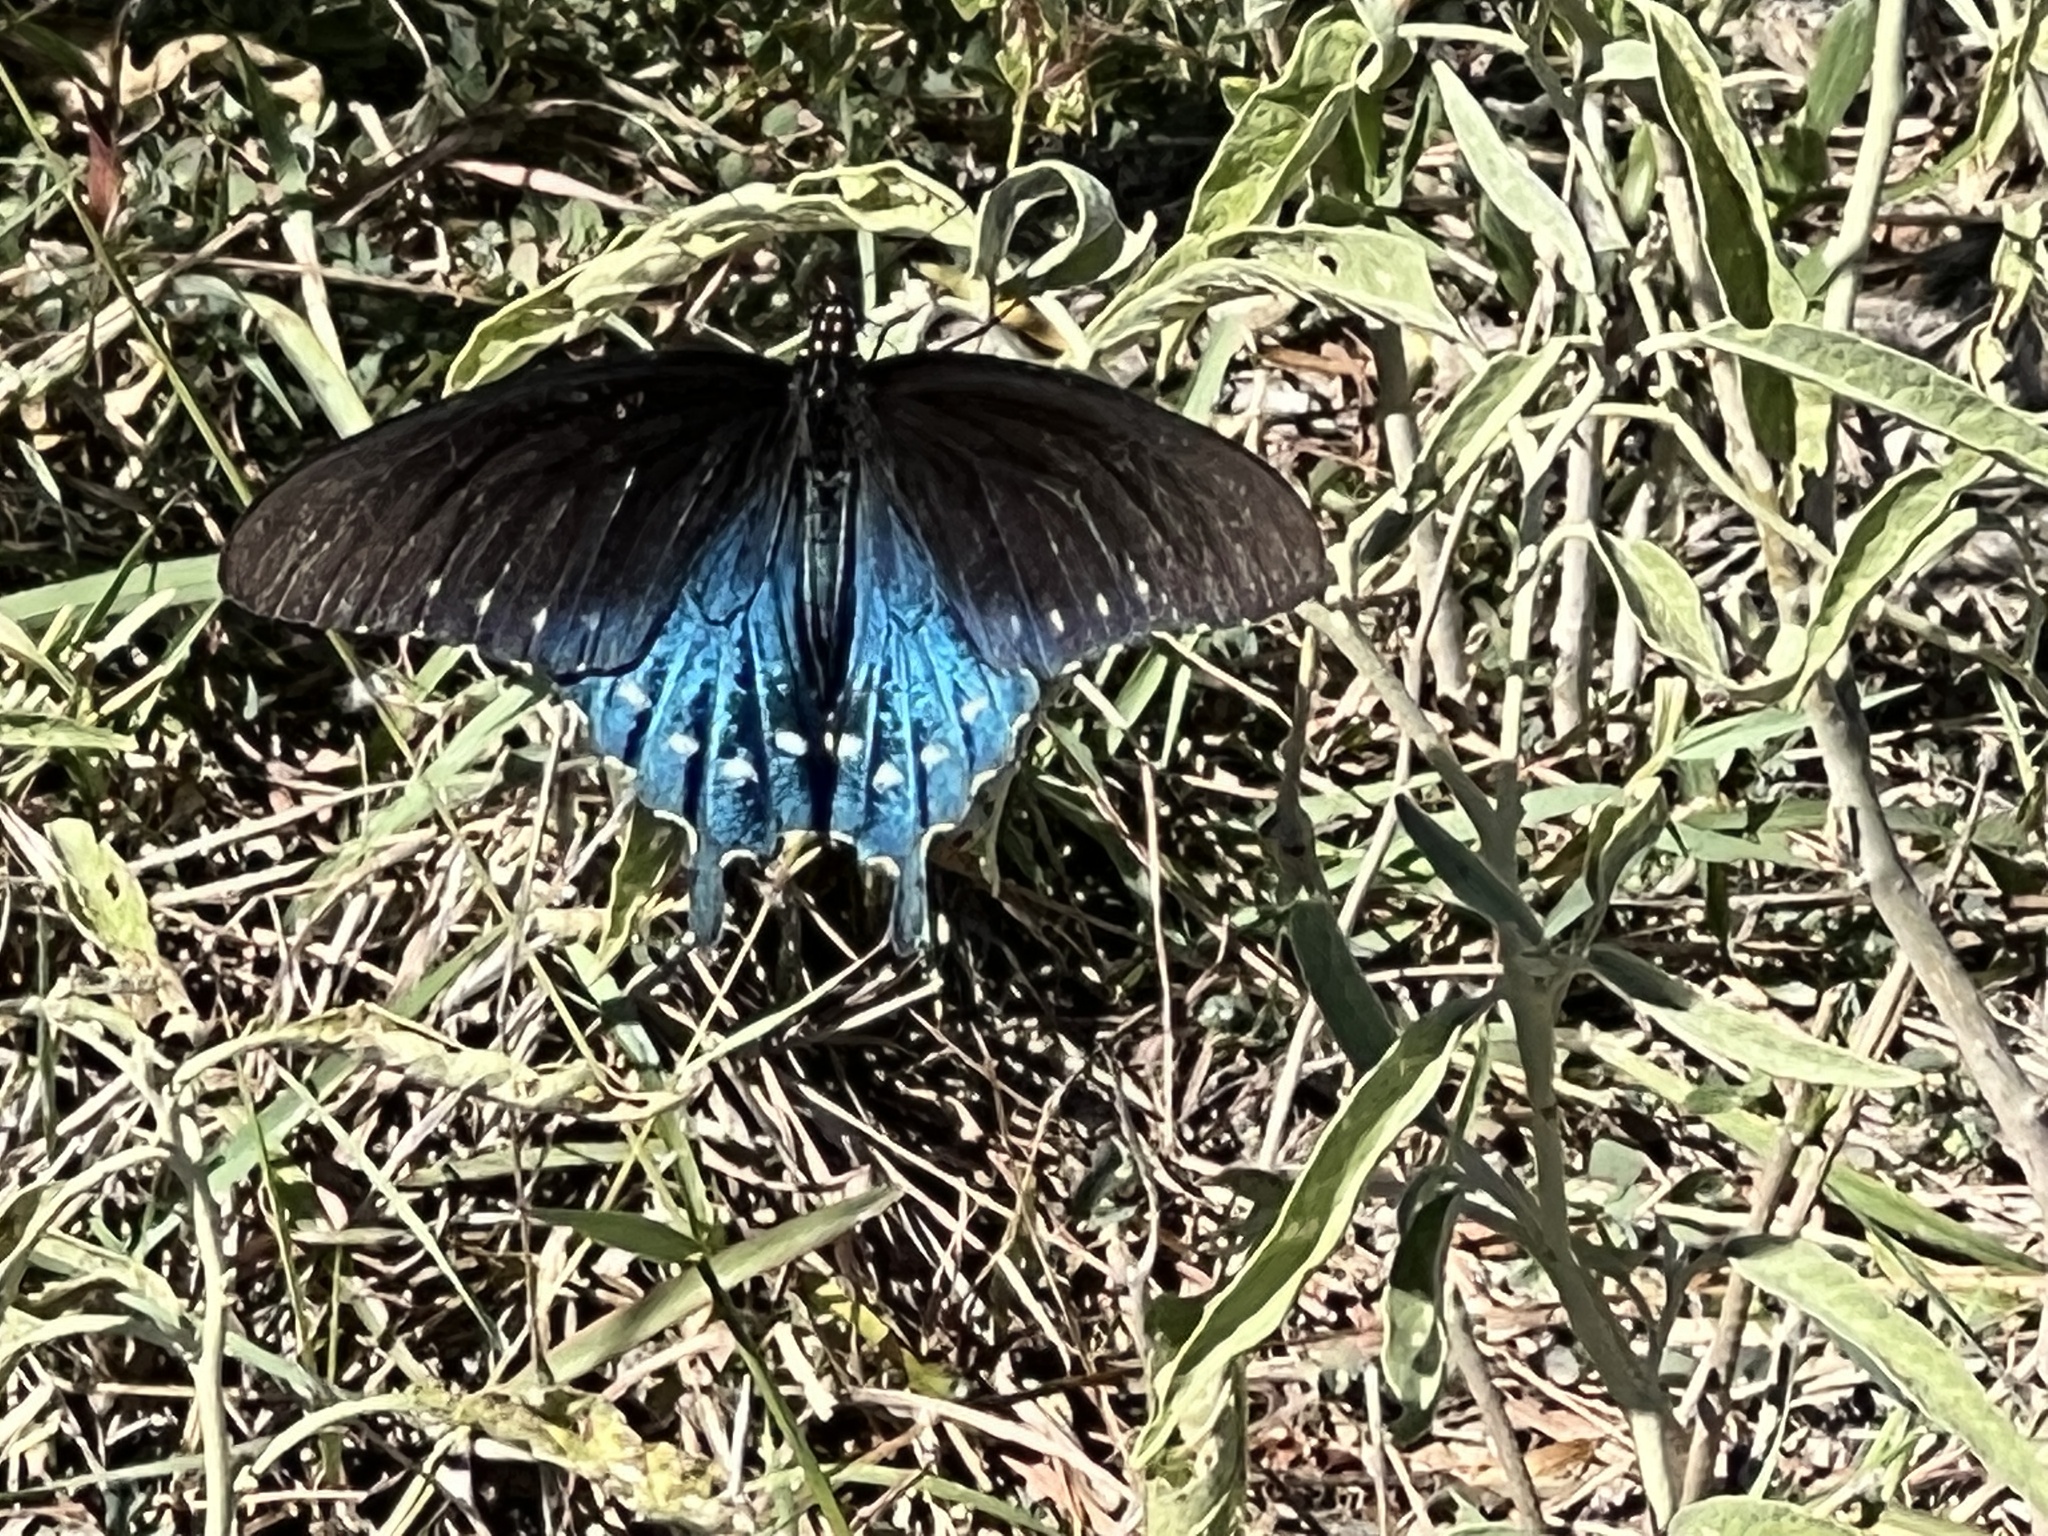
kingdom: Animalia
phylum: Arthropoda
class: Insecta
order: Lepidoptera
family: Papilionidae
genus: Battus
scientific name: Battus philenor
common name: Pipevine swallowtail
